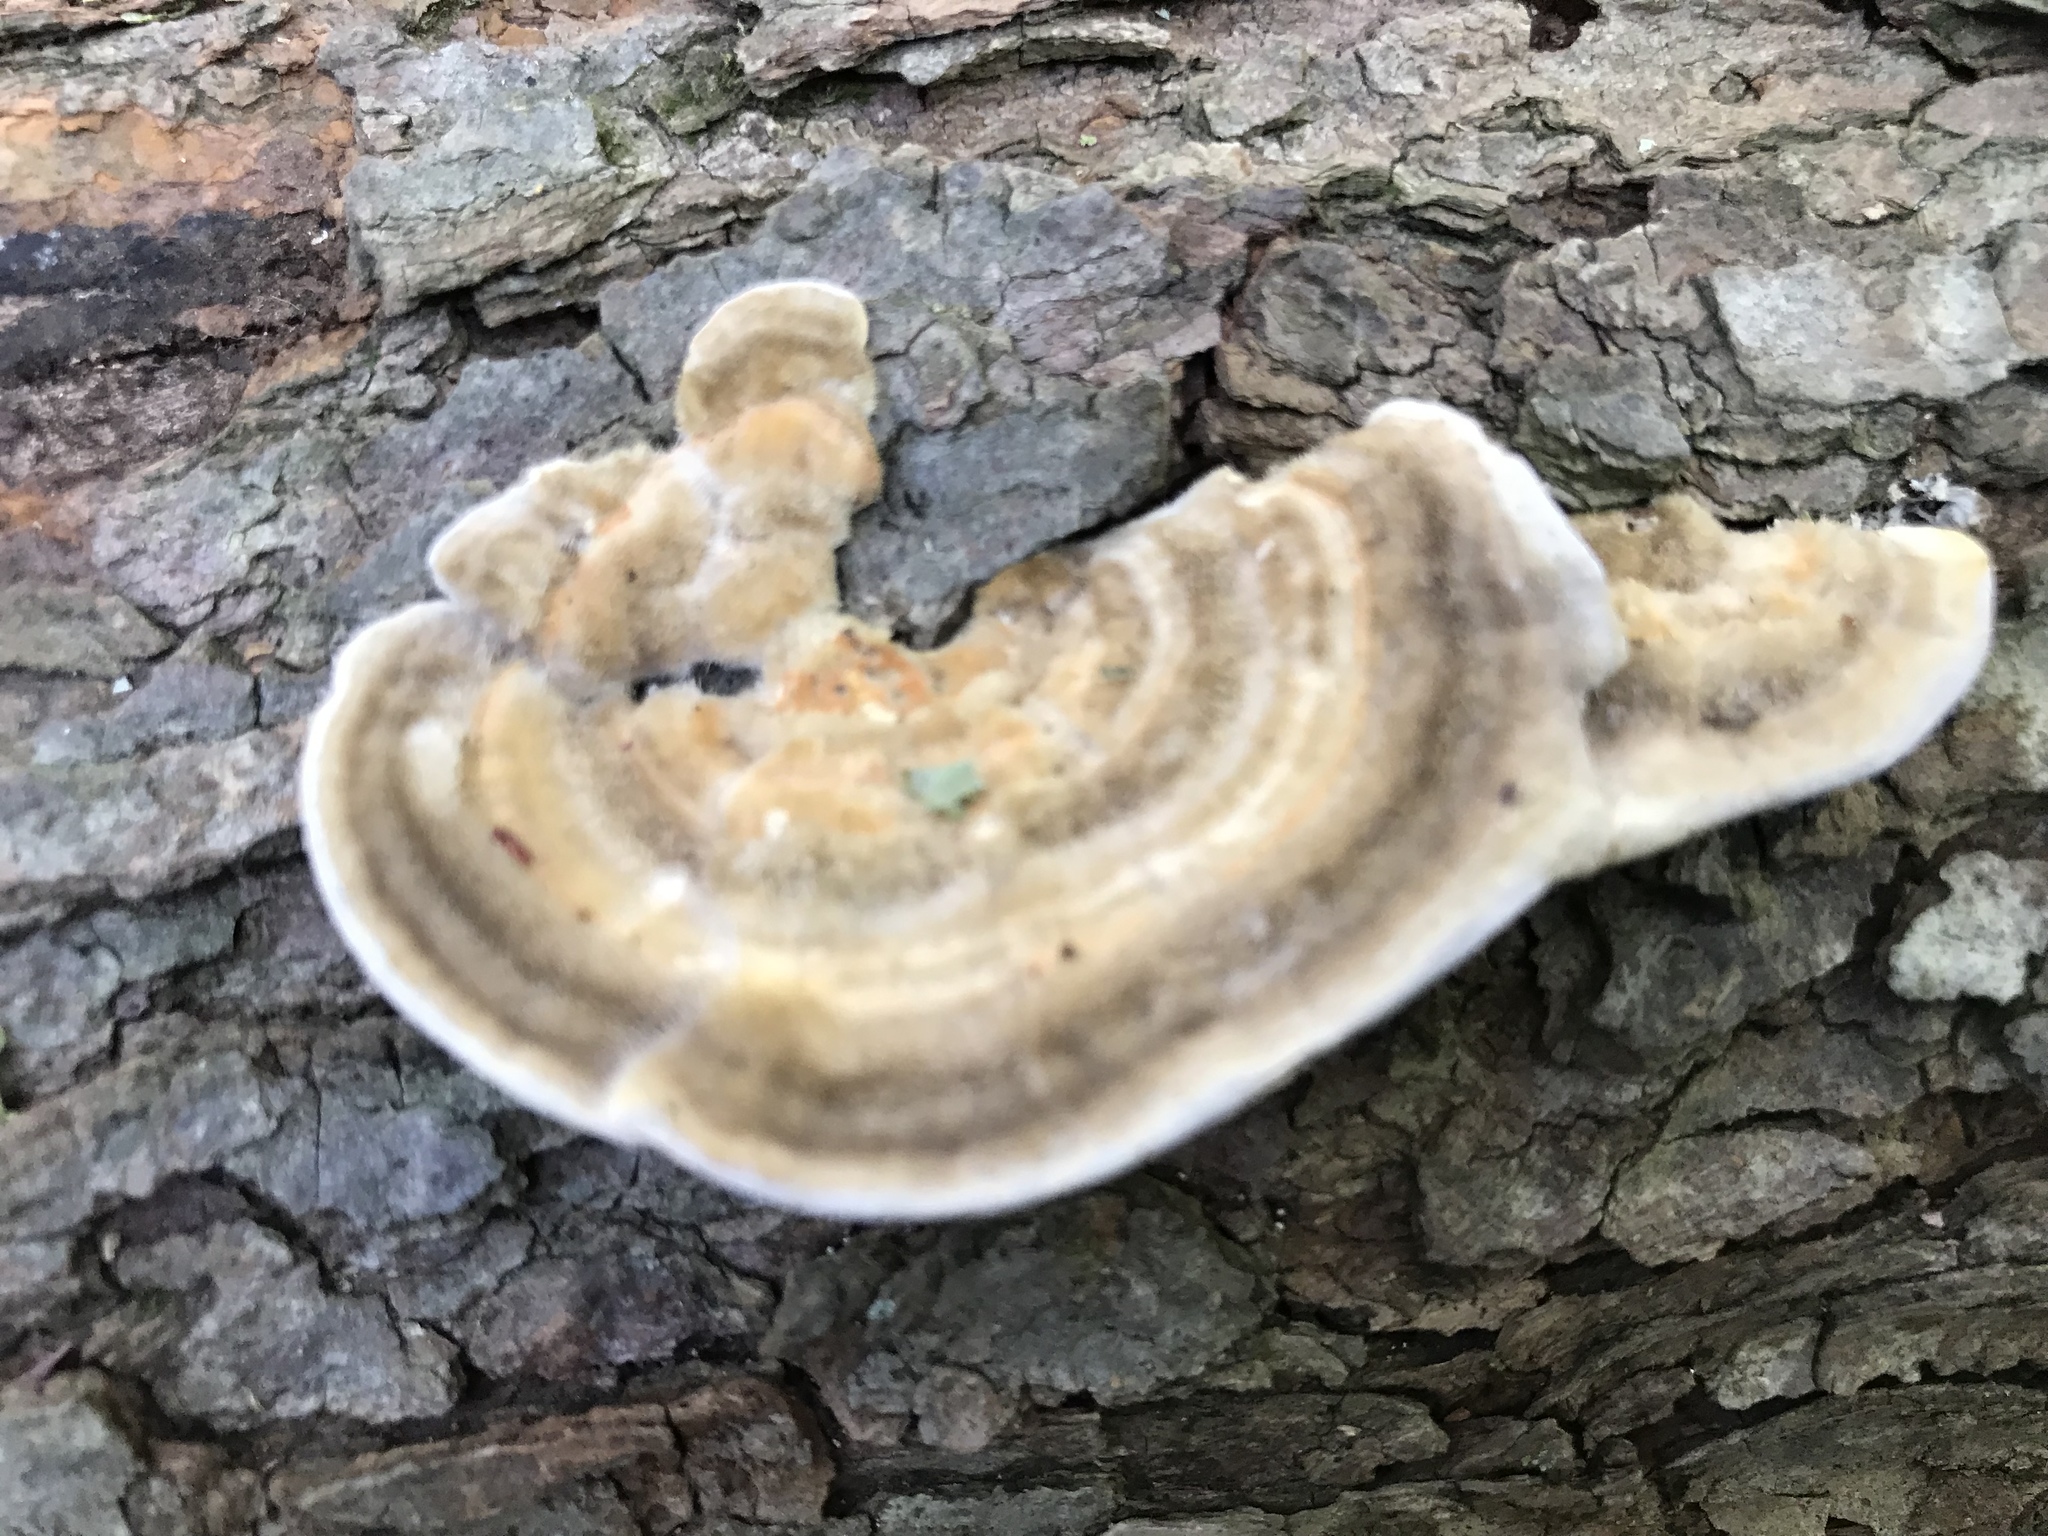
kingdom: Fungi
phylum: Basidiomycota
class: Agaricomycetes
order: Polyporales
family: Polyporaceae
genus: Lenzites
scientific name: Lenzites betulinus
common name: Birch mazegill
